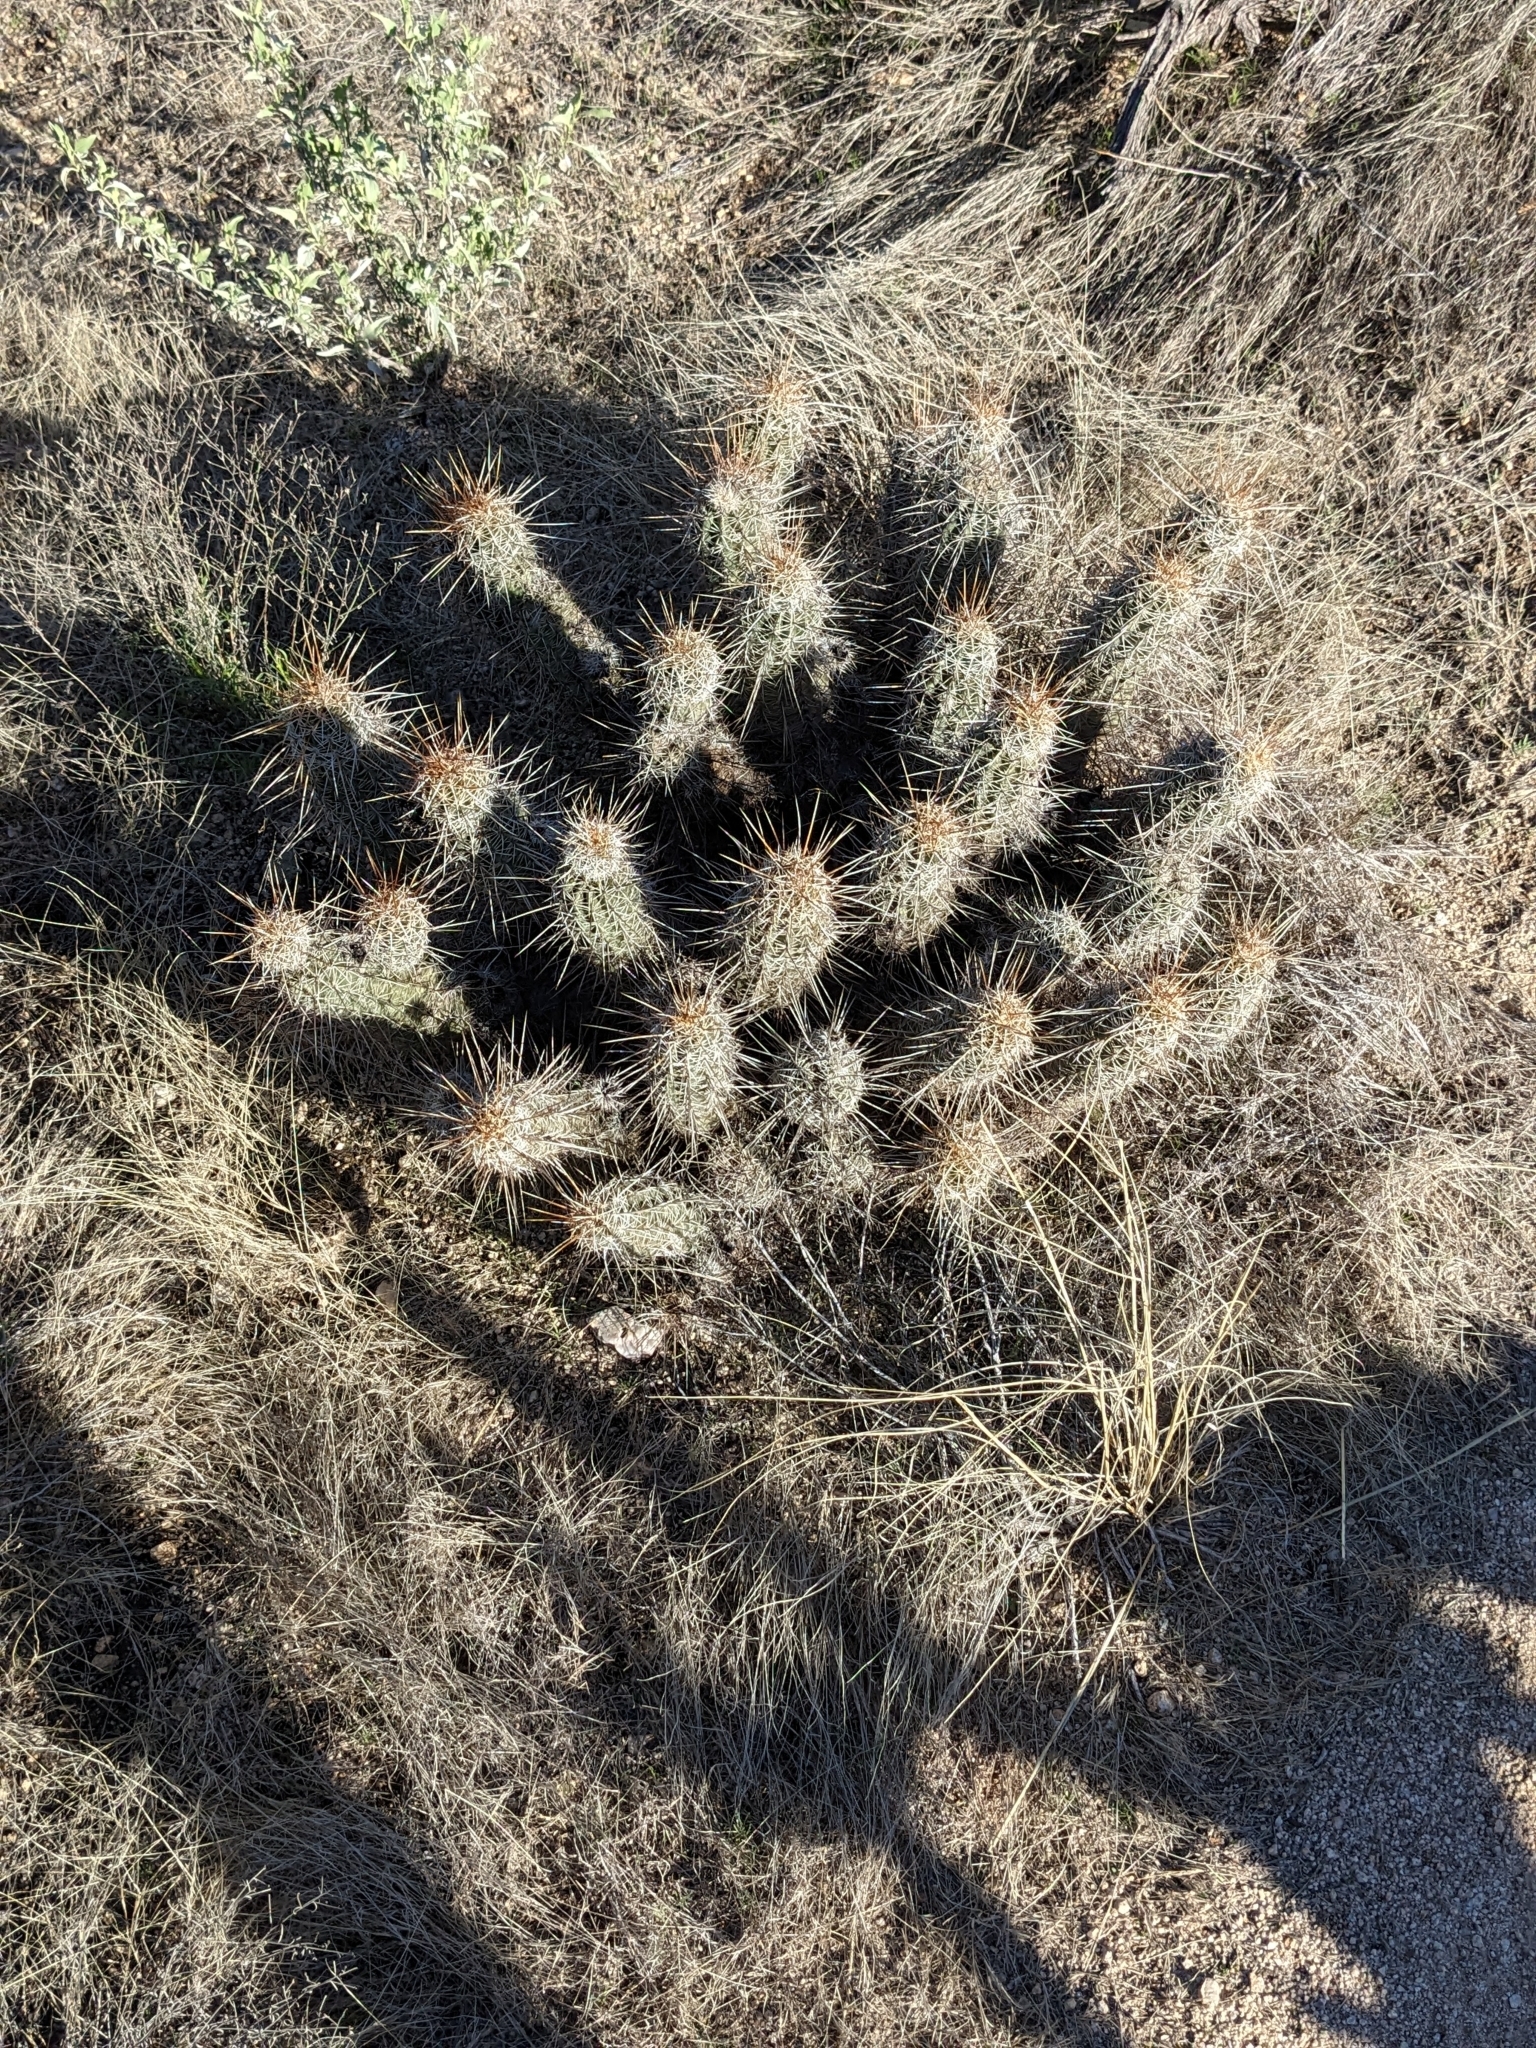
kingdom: Plantae
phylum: Tracheophyta
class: Magnoliopsida
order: Caryophyllales
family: Cactaceae
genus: Echinocereus
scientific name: Echinocereus fasciculatus
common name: Bundle hedgehog
